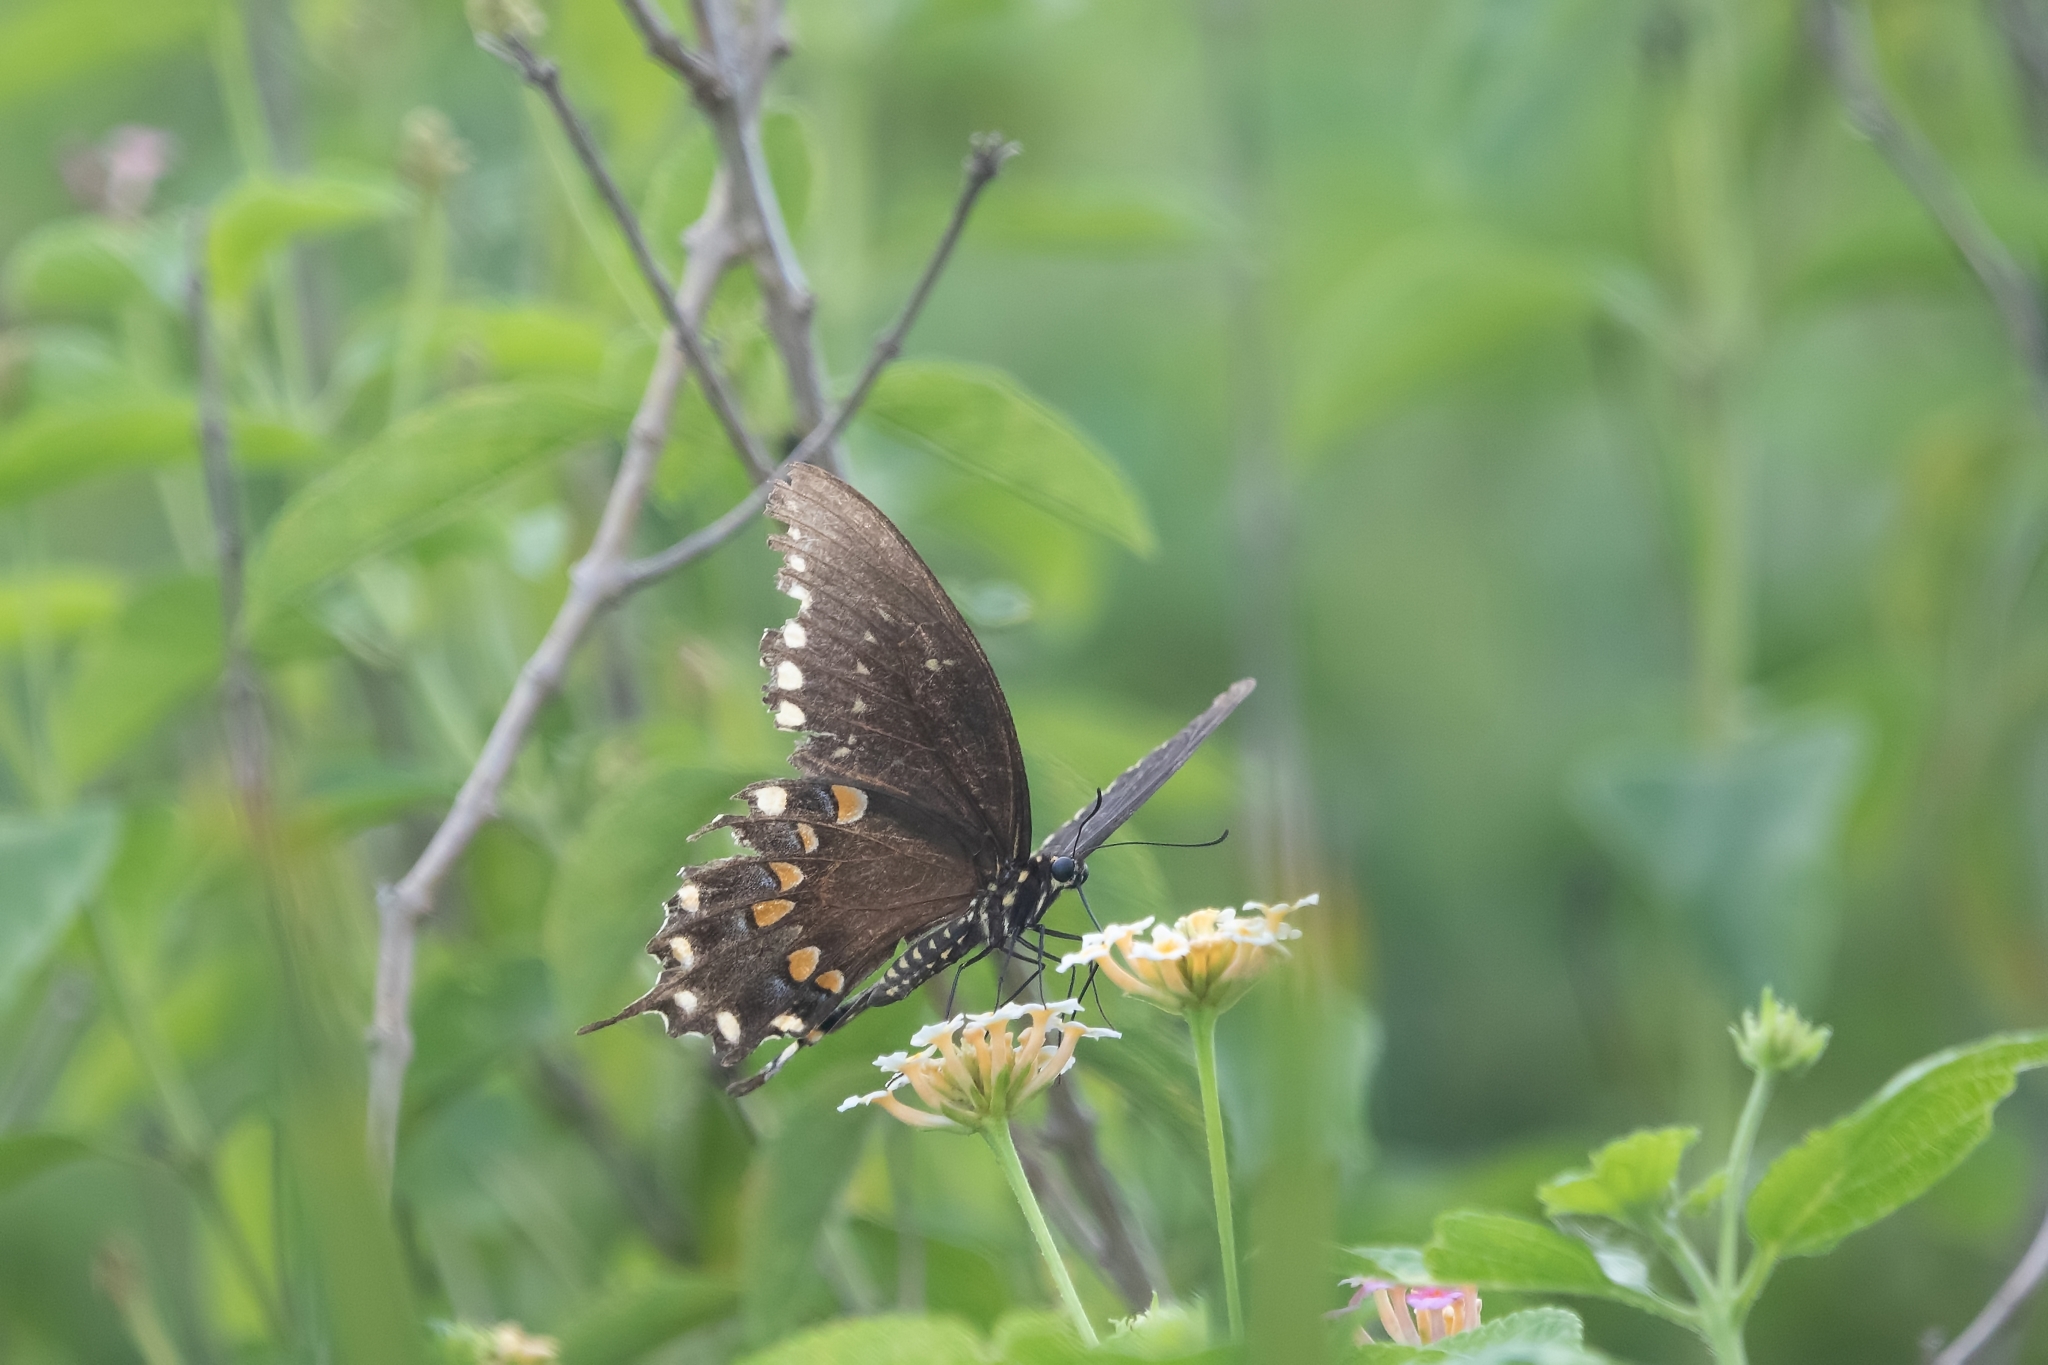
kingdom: Animalia
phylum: Arthropoda
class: Insecta
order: Lepidoptera
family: Papilionidae
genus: Papilio
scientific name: Papilio troilus
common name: Spicebush swallowtail
